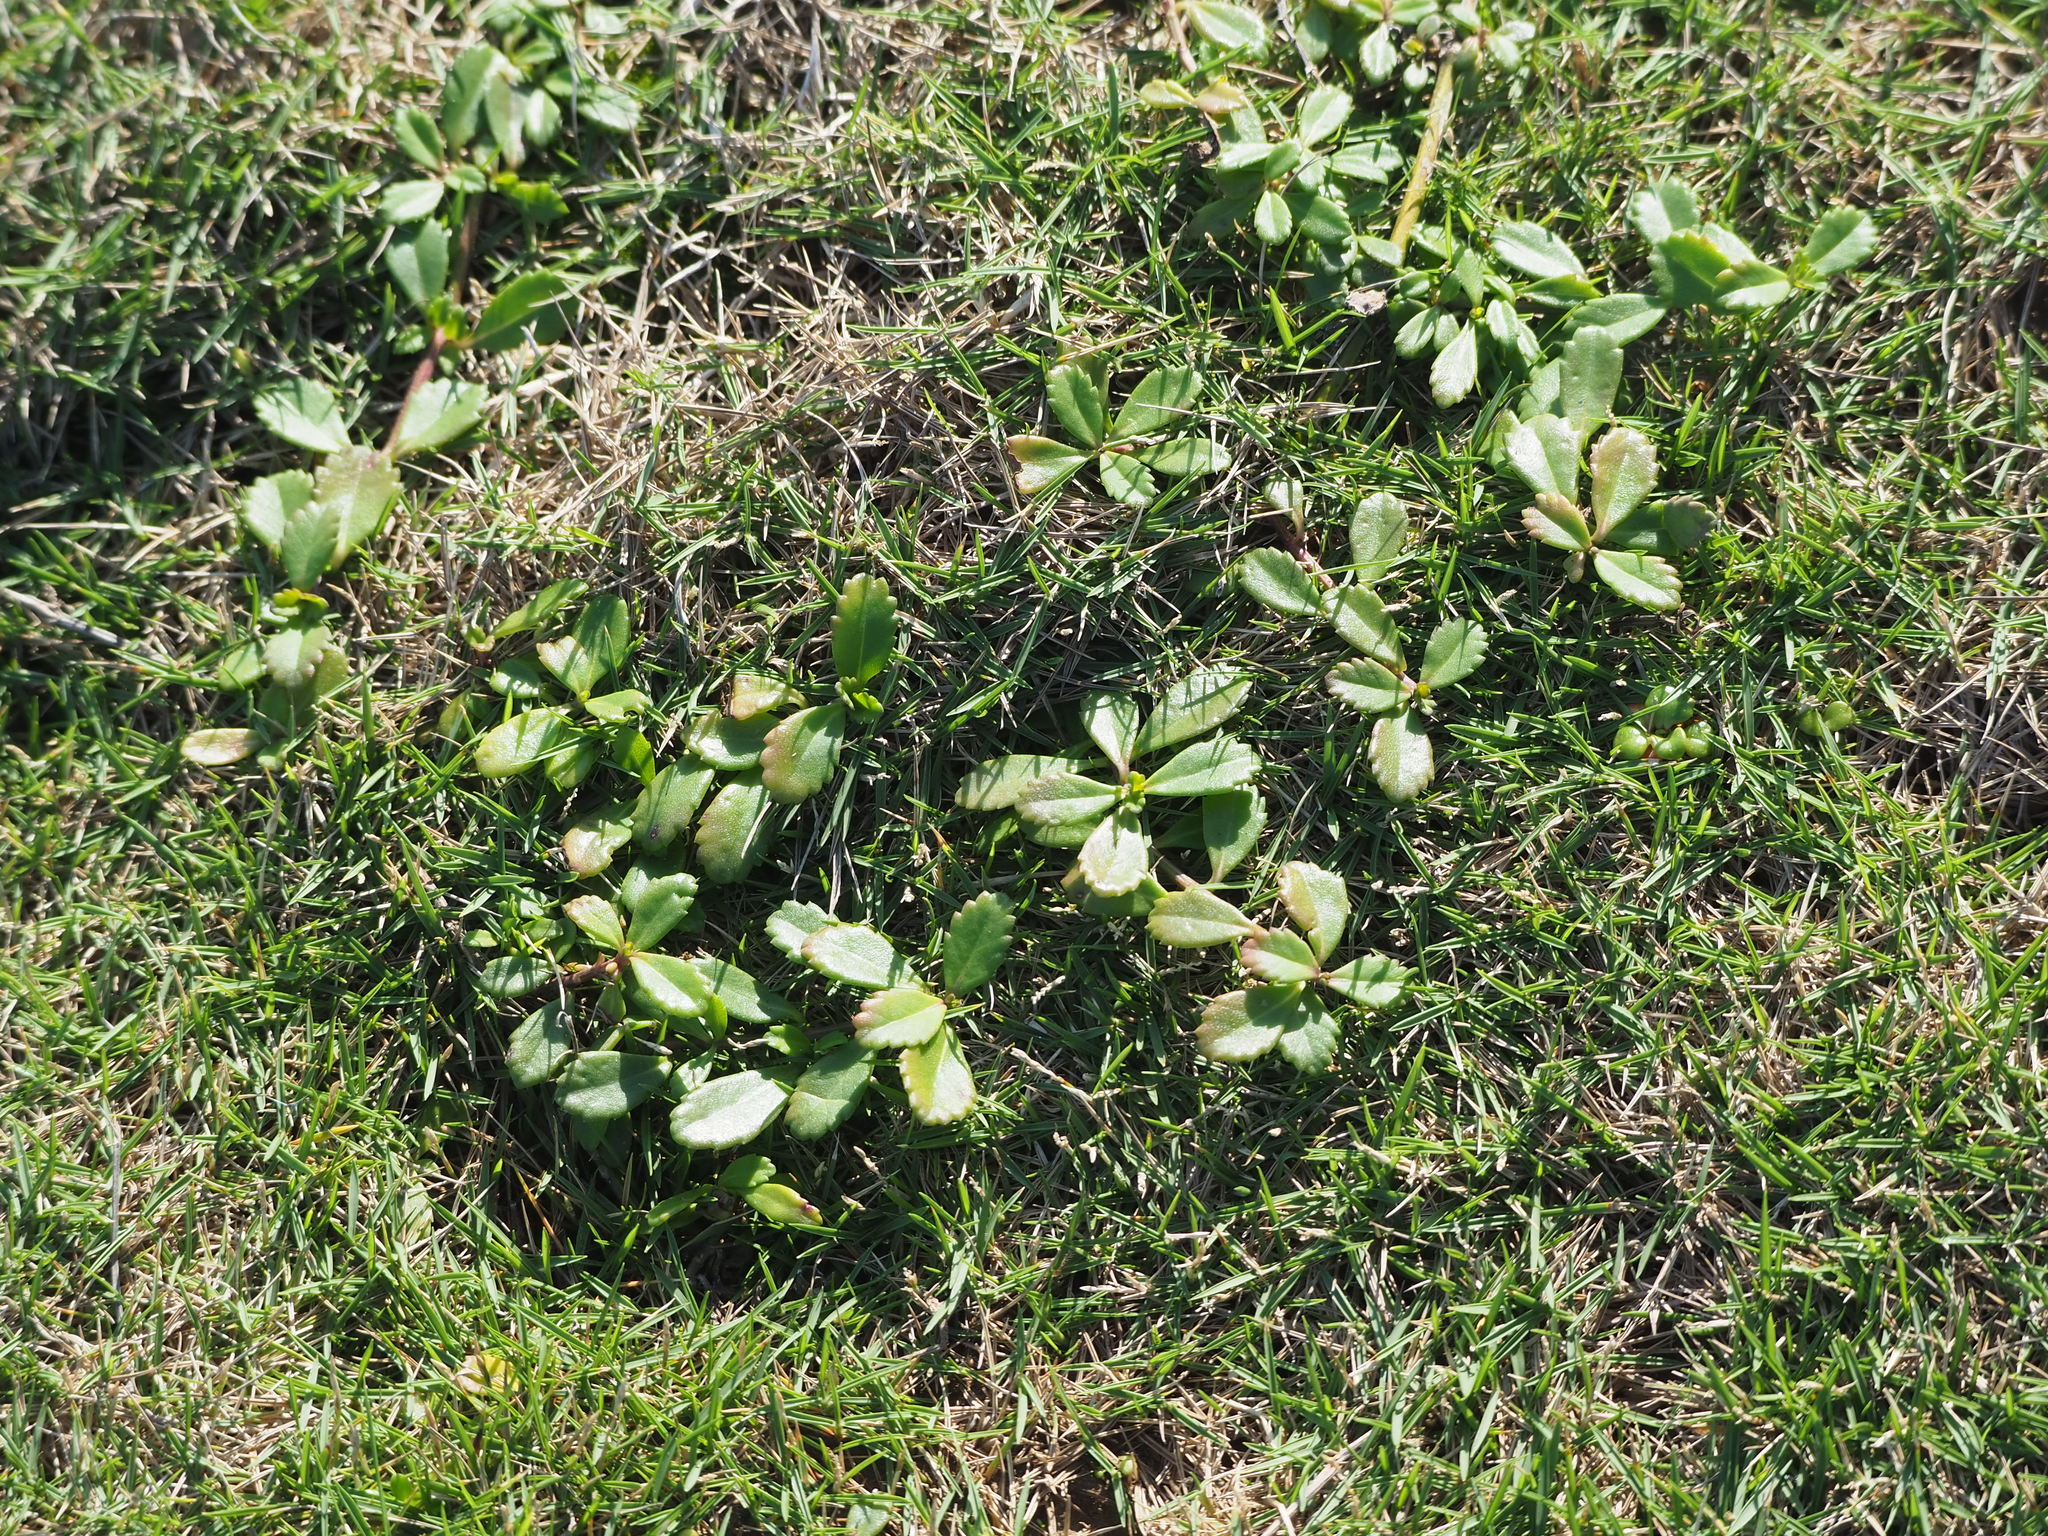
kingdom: Plantae
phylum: Tracheophyta
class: Magnoliopsida
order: Lamiales
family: Verbenaceae
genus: Phyla
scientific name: Phyla nodiflora
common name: Frogfruit
